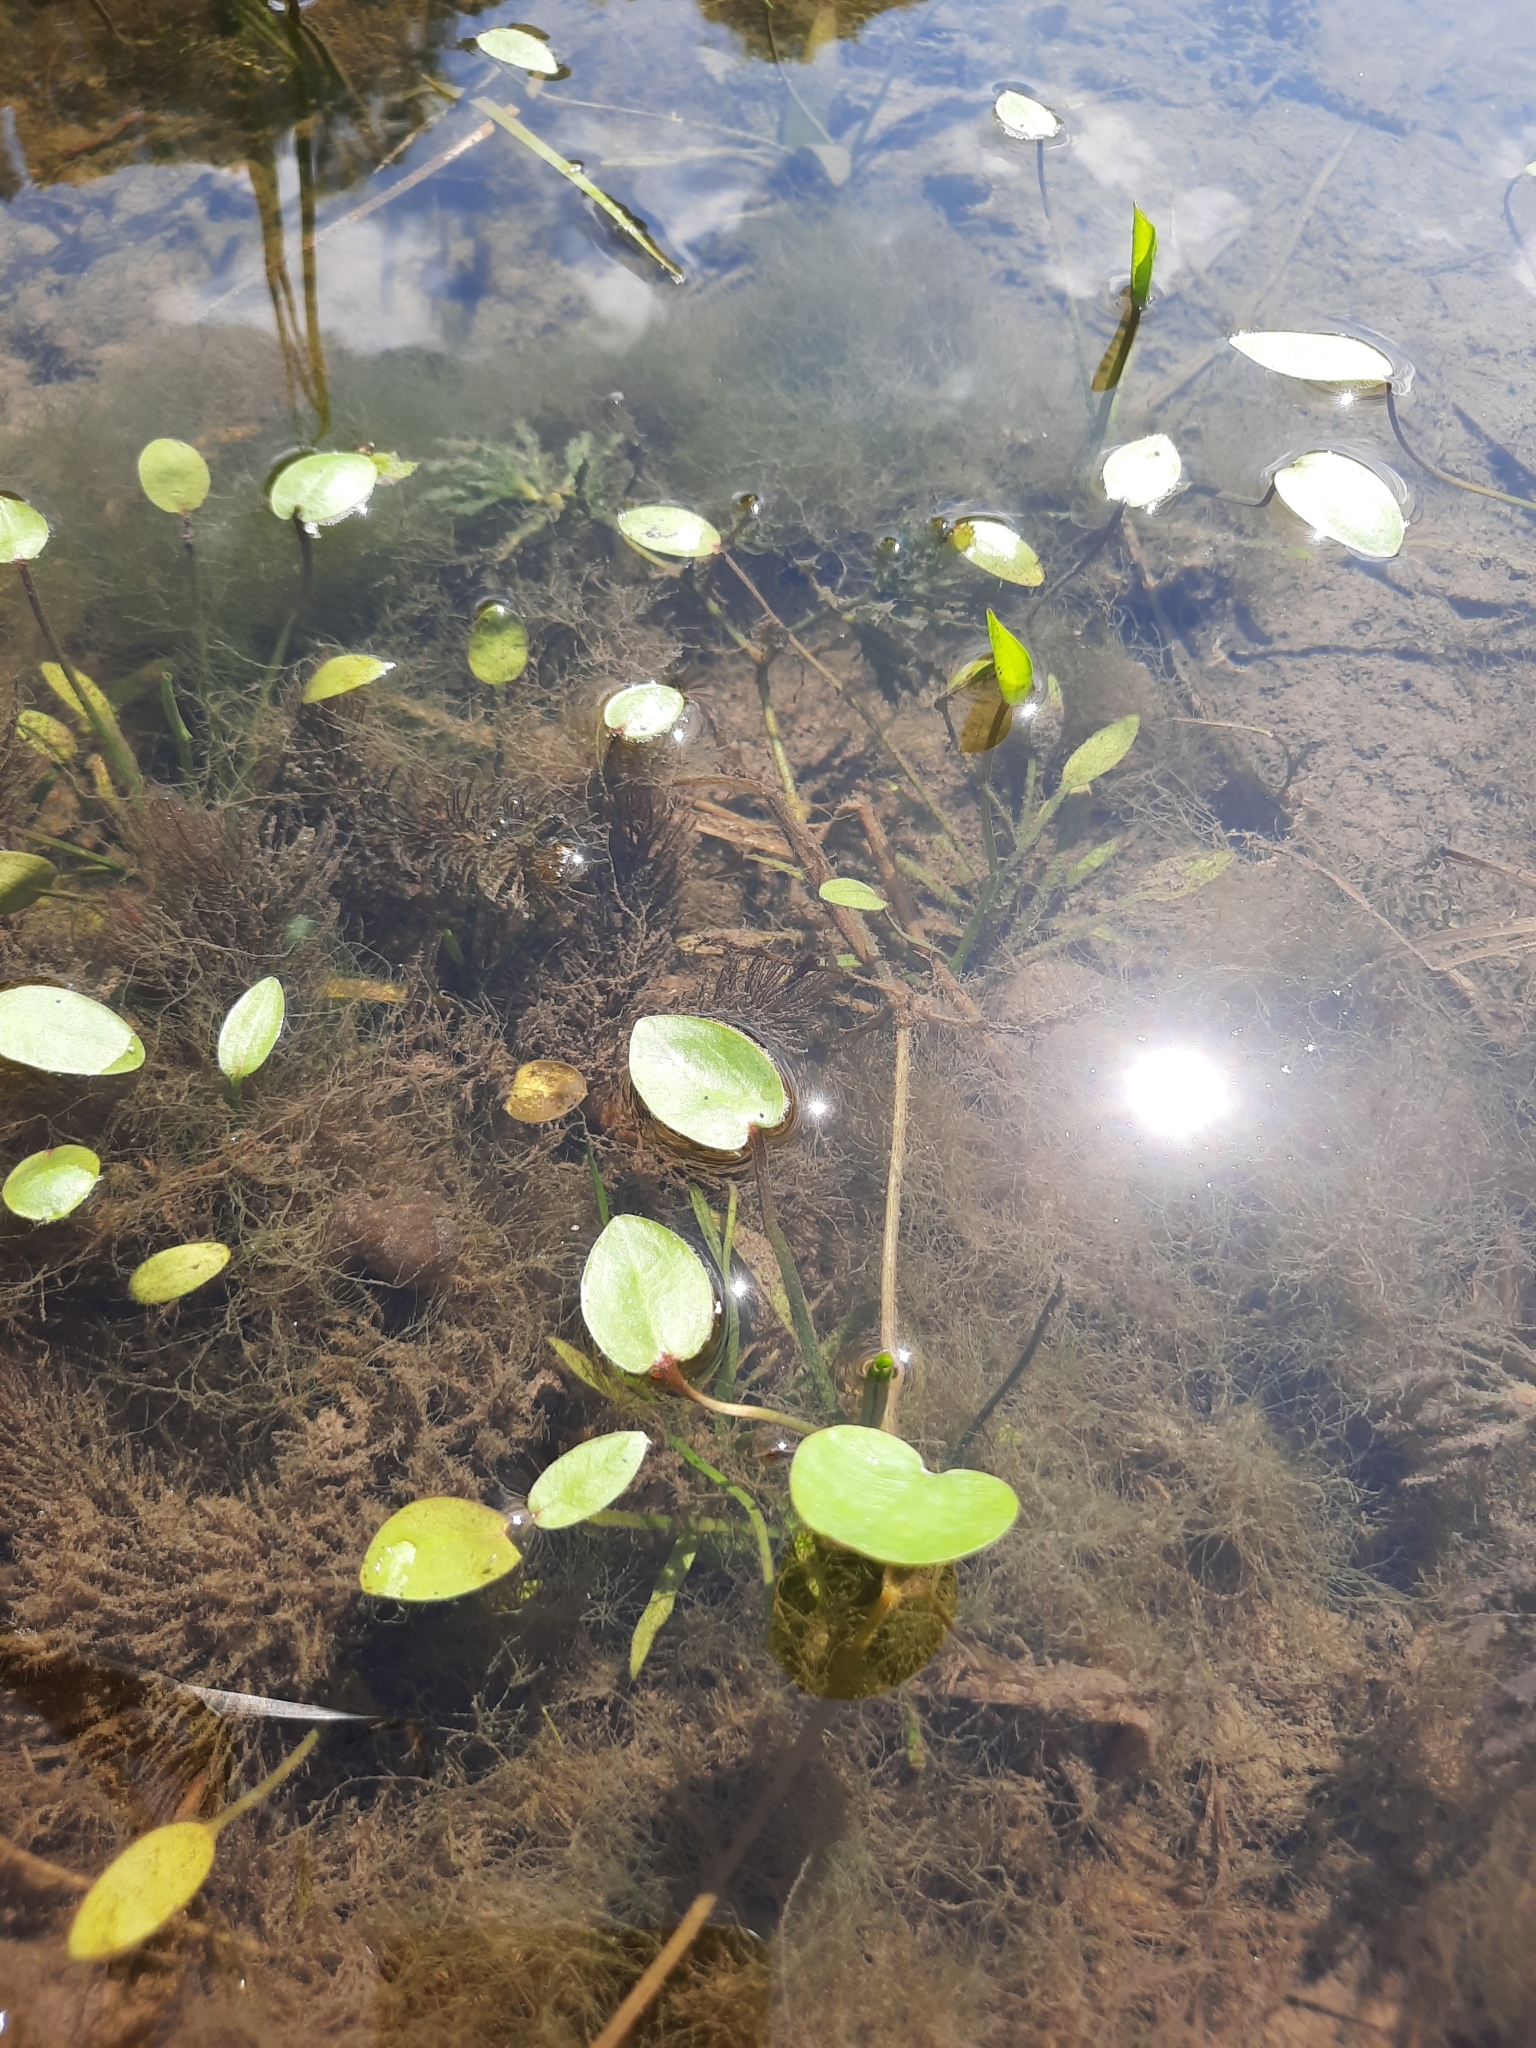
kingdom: Plantae
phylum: Tracheophyta
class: Liliopsida
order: Alismatales
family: Alismataceae
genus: Alisma
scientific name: Alisma plantago-aquatica
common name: Water-plantain
